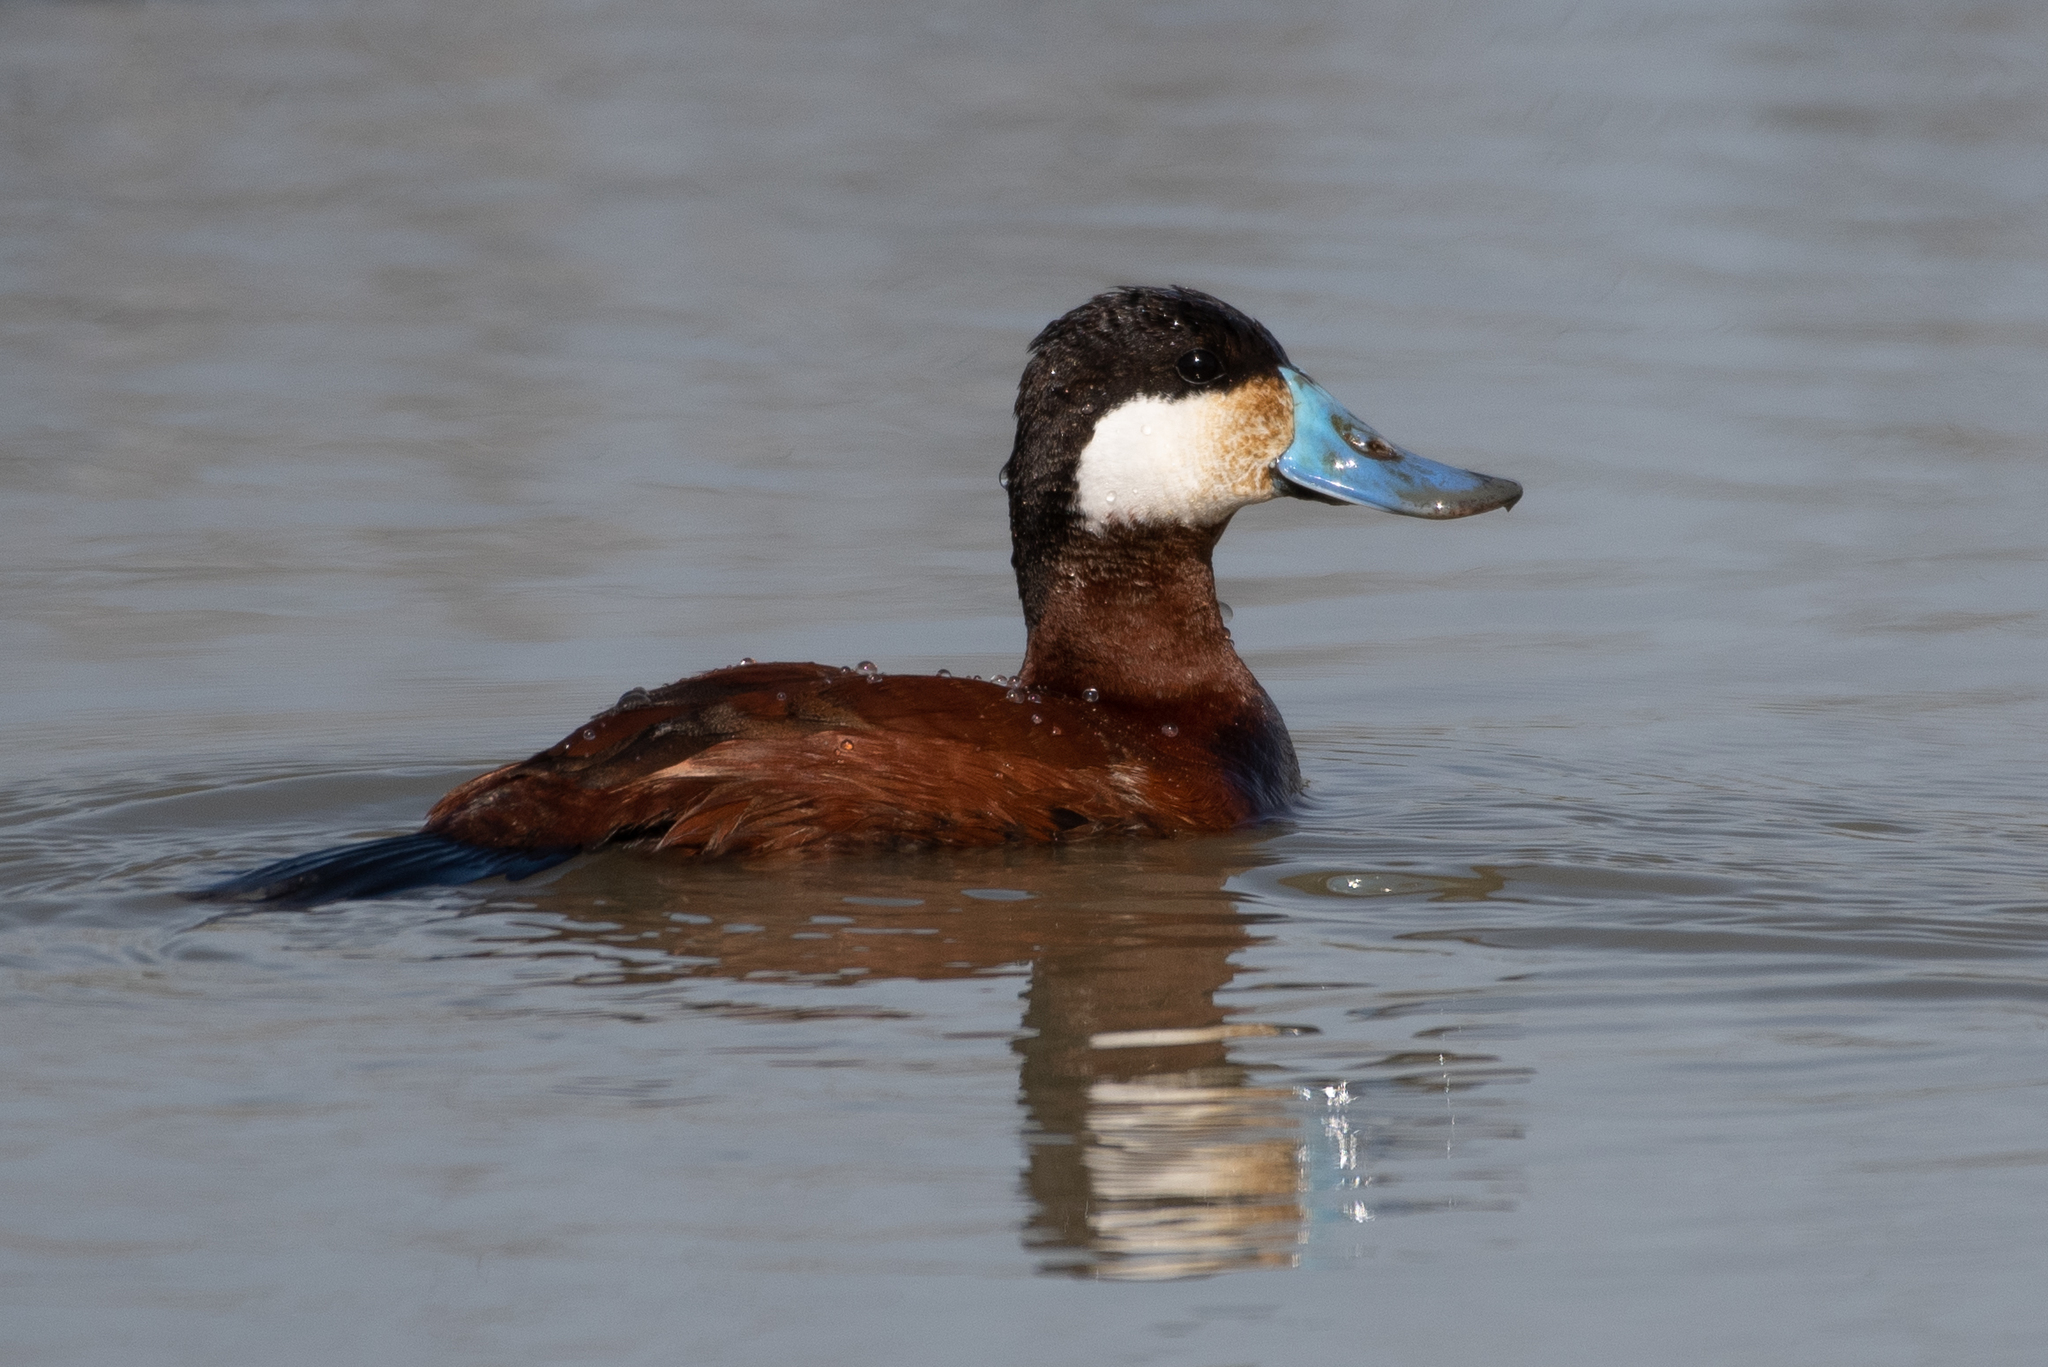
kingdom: Animalia
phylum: Chordata
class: Aves
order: Anseriformes
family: Anatidae
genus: Oxyura
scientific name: Oxyura jamaicensis
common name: Ruddy duck
